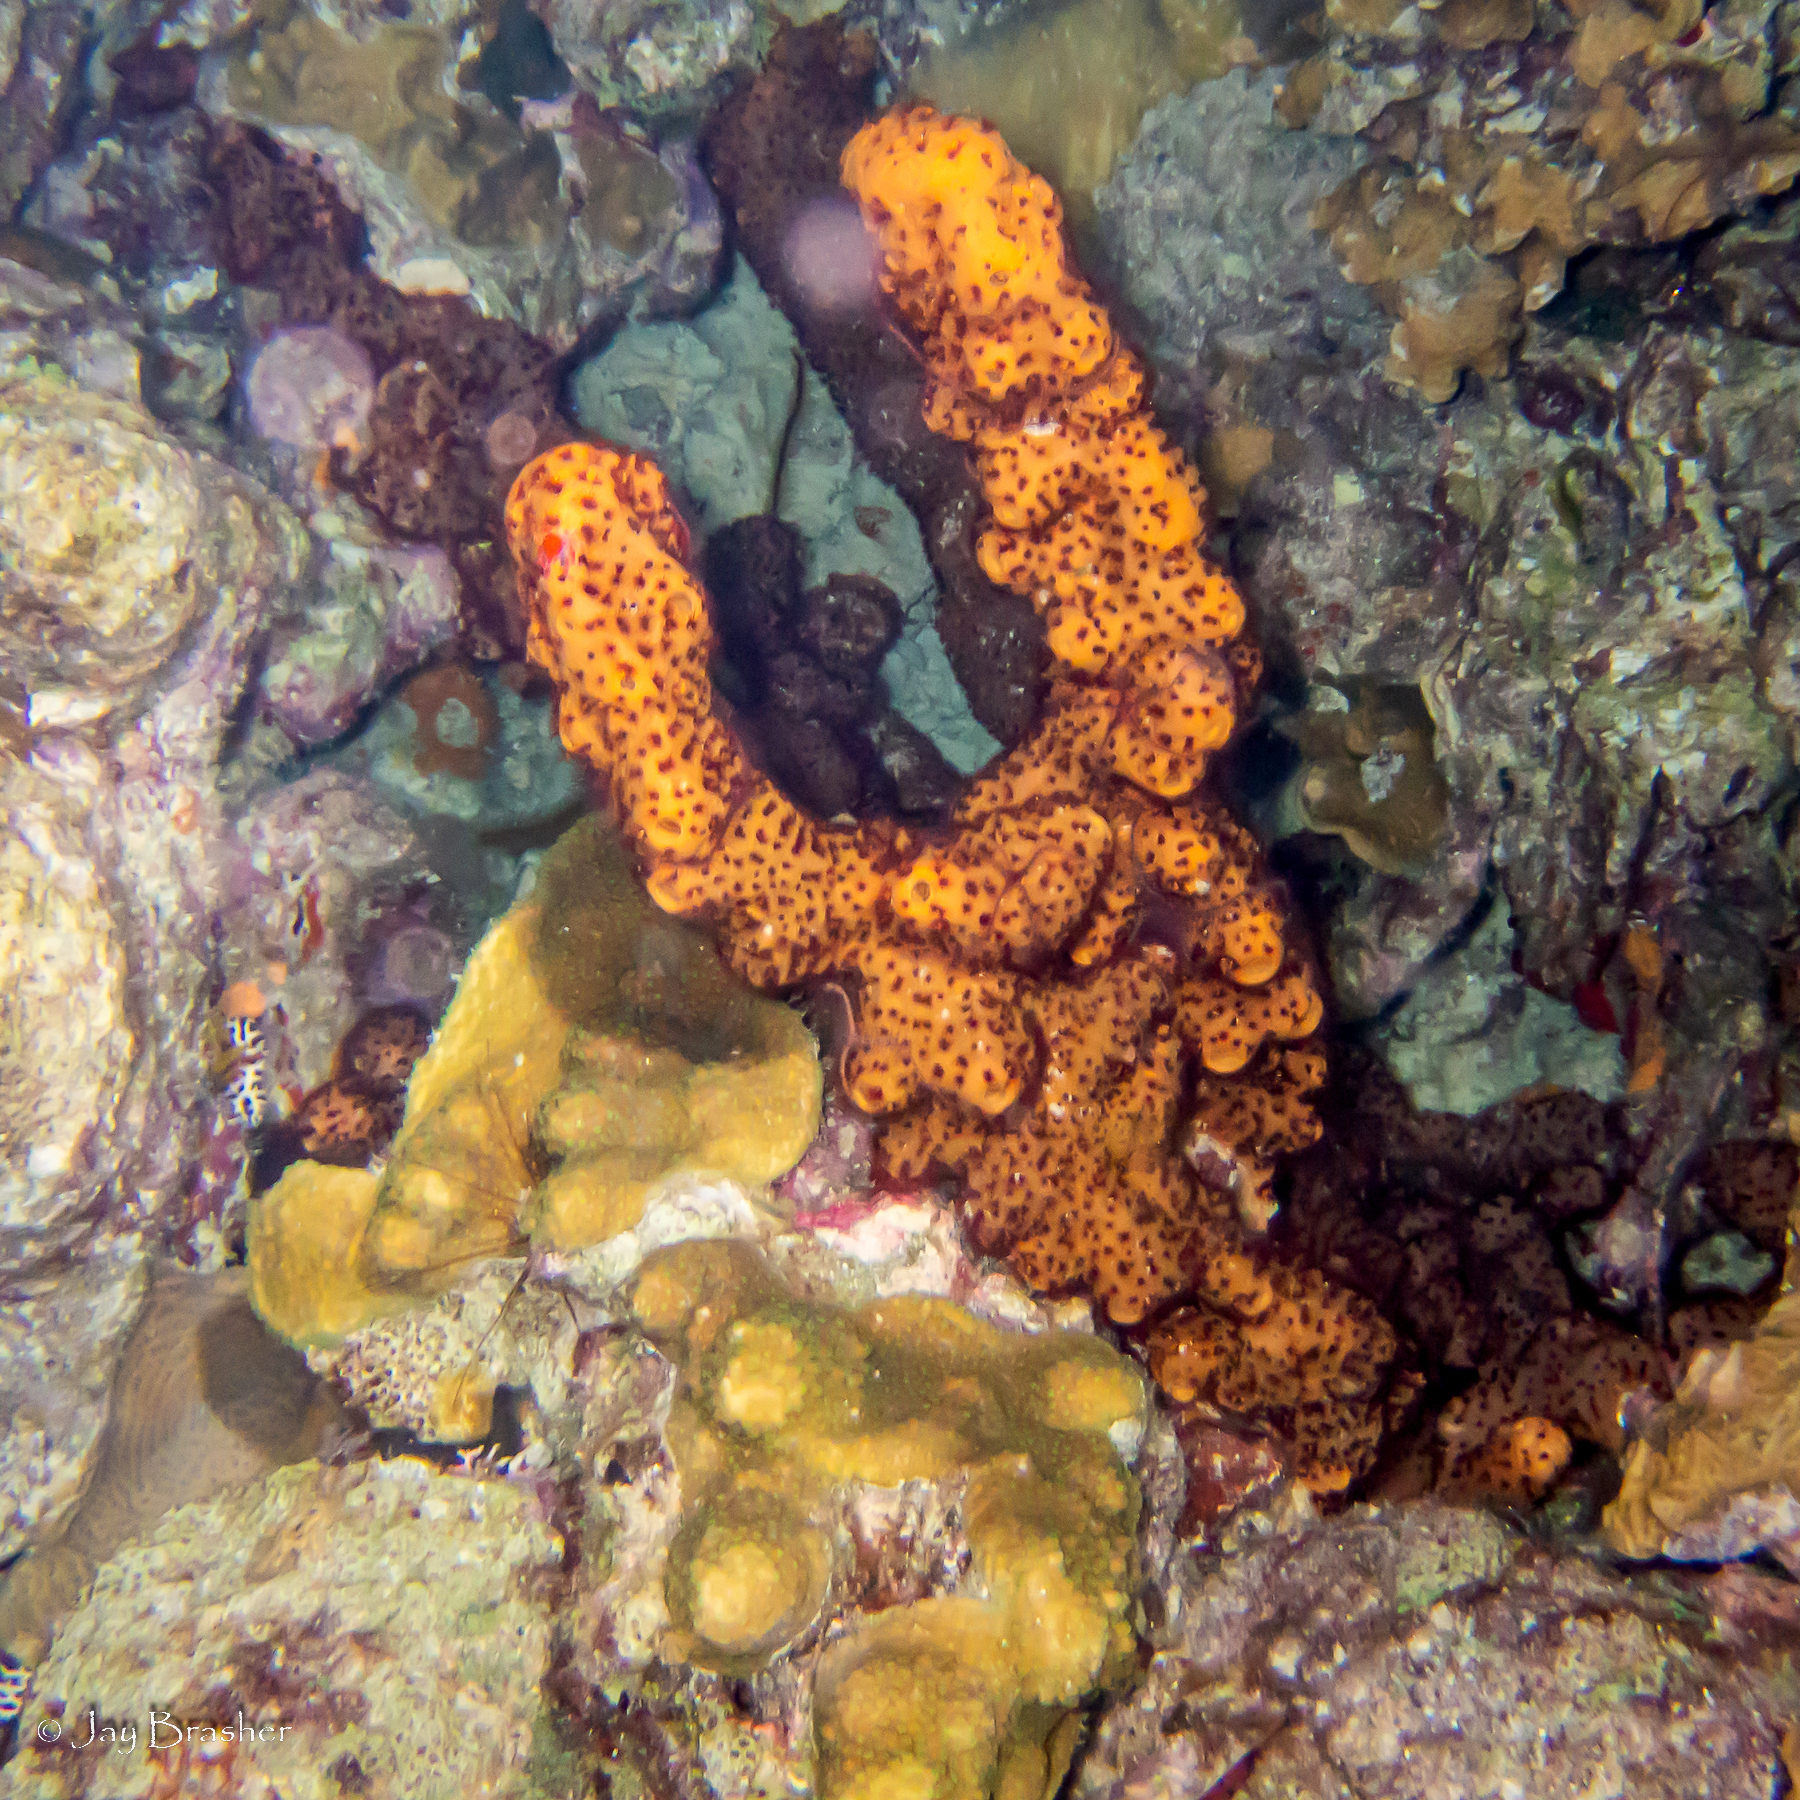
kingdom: Animalia
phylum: Cnidaria
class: Anthozoa
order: Zoantharia
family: Parazoanthidae
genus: Bergia
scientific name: Bergia puertoricense
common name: Maroon sponge zoanthid
